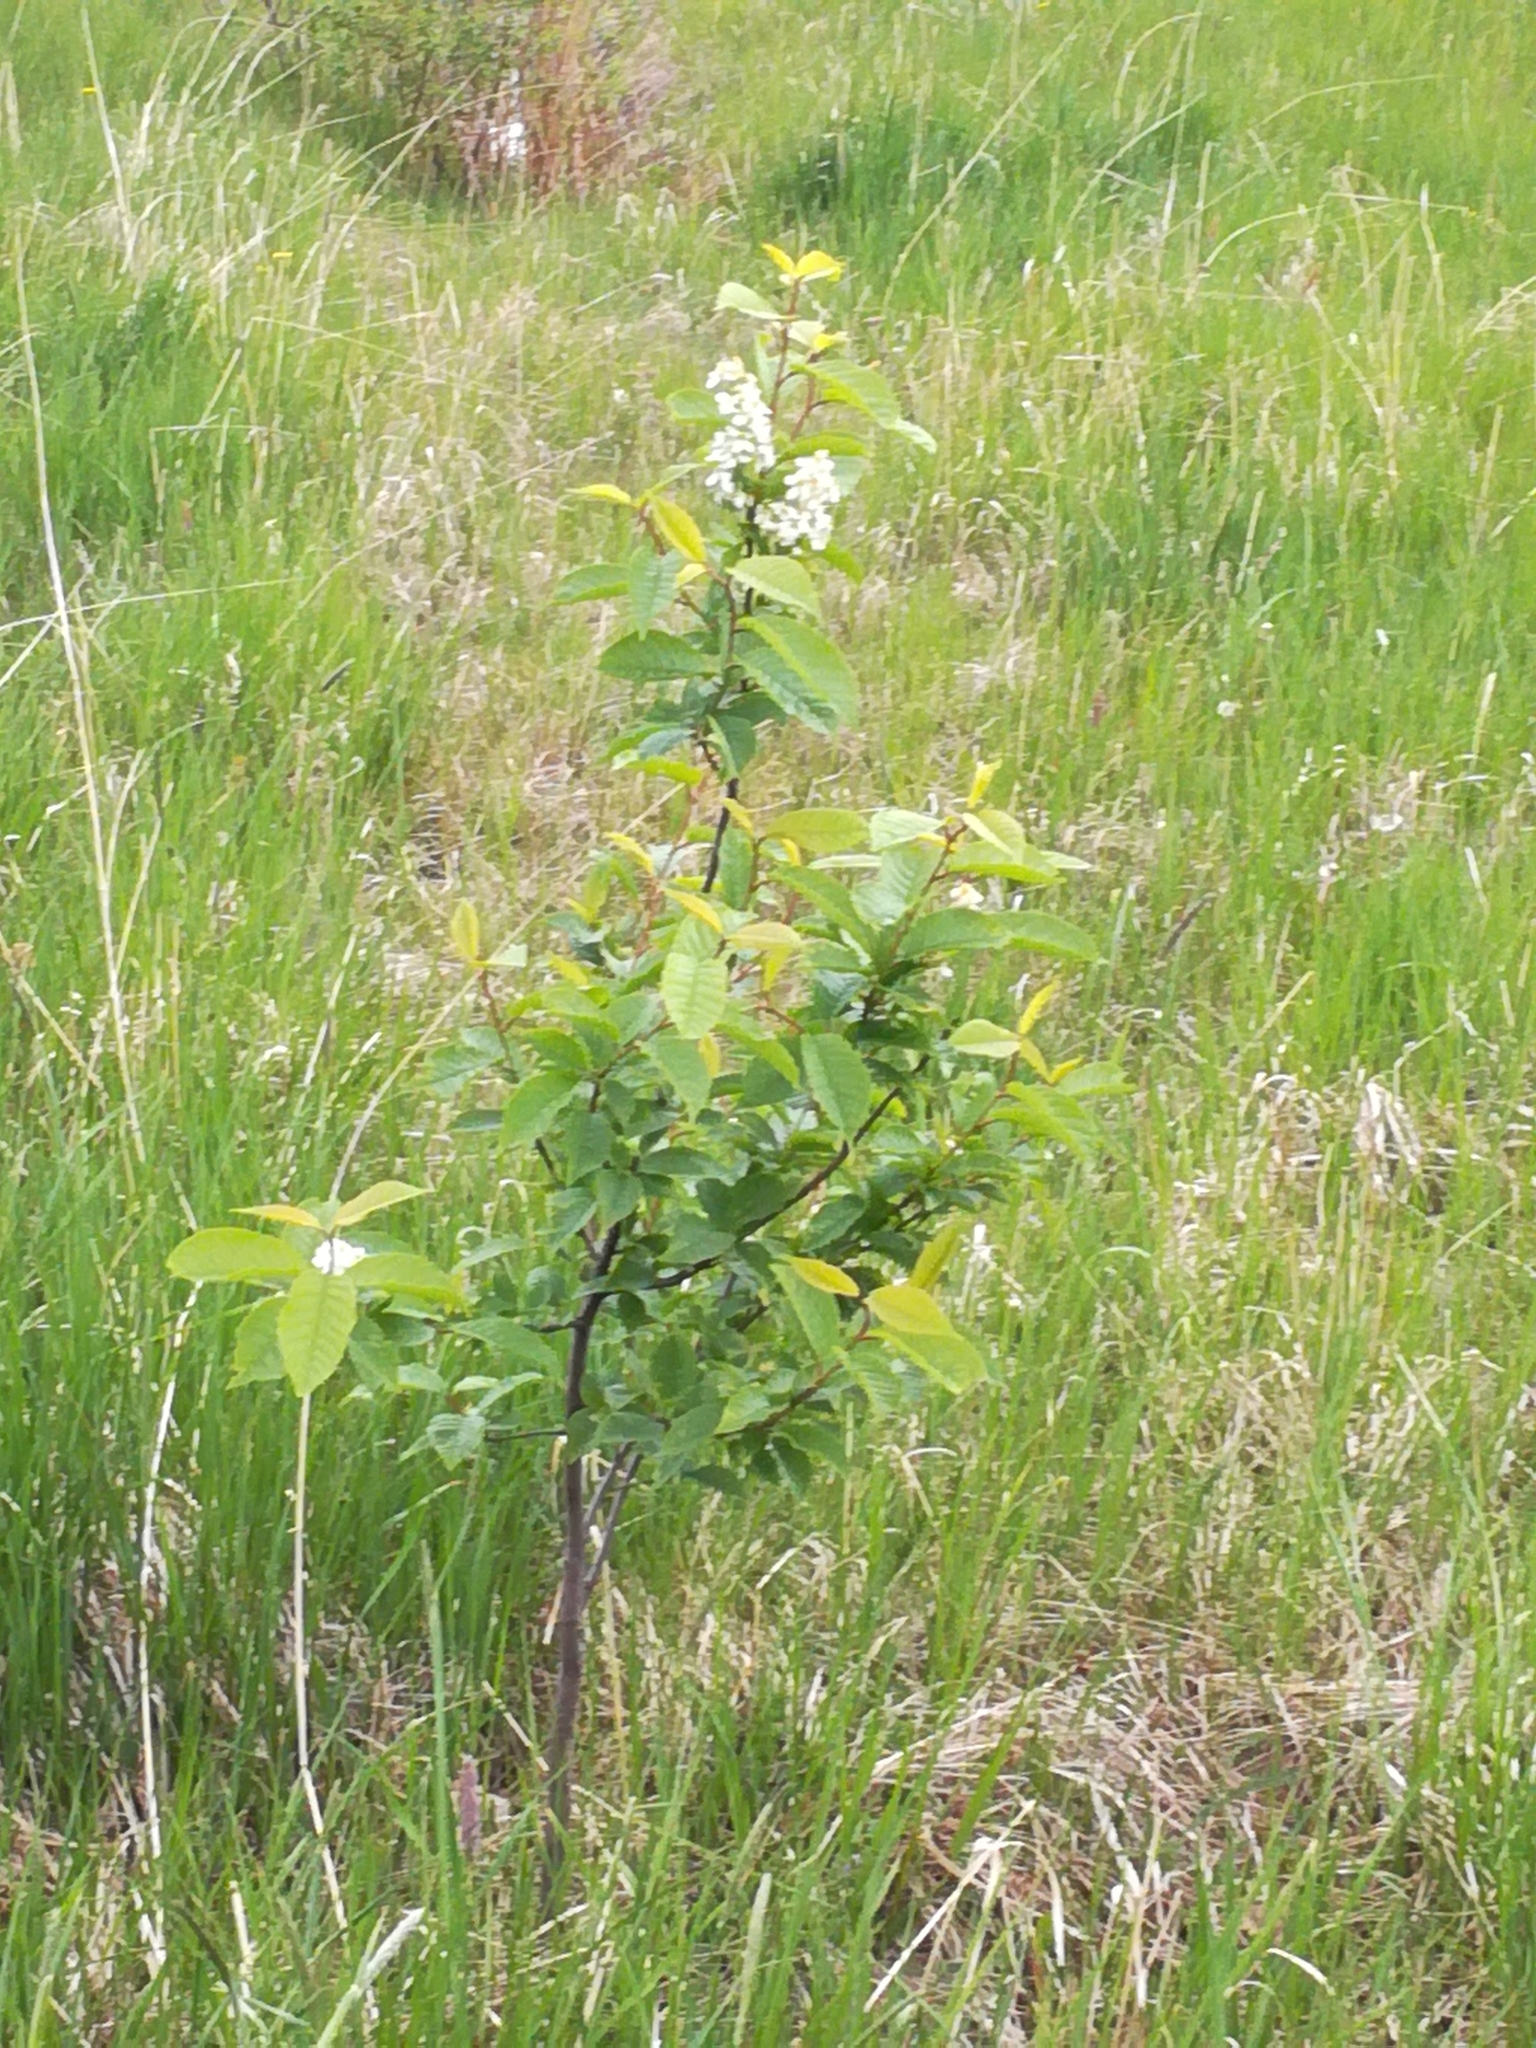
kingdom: Plantae
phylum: Tracheophyta
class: Magnoliopsida
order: Rosales
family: Rosaceae
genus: Prunus
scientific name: Prunus padus
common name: Bird cherry
